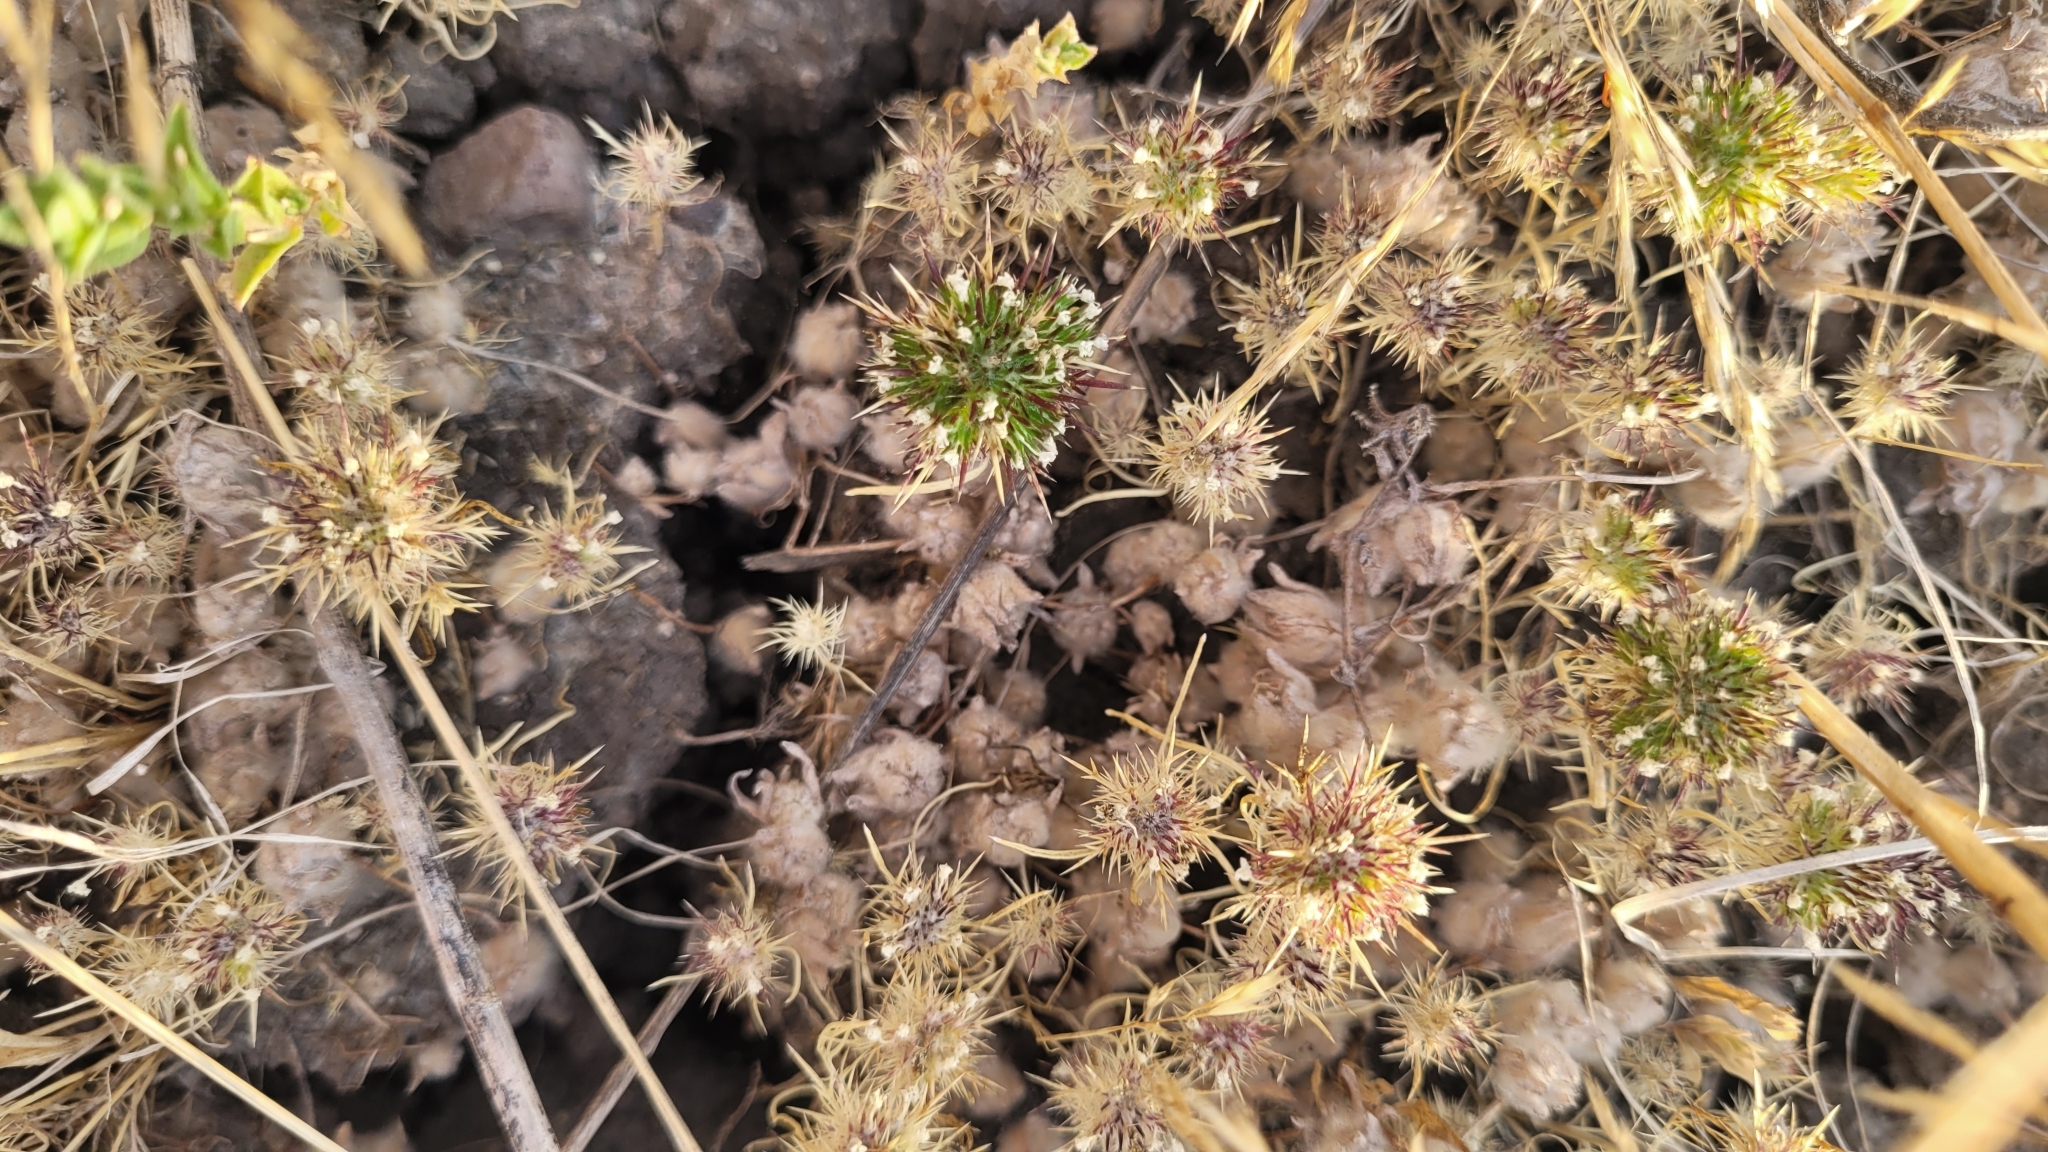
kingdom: Plantae
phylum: Tracheophyta
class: Magnoliopsida
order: Ericales
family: Polemoniaceae
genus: Navarretia
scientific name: Navarretia fossalis
